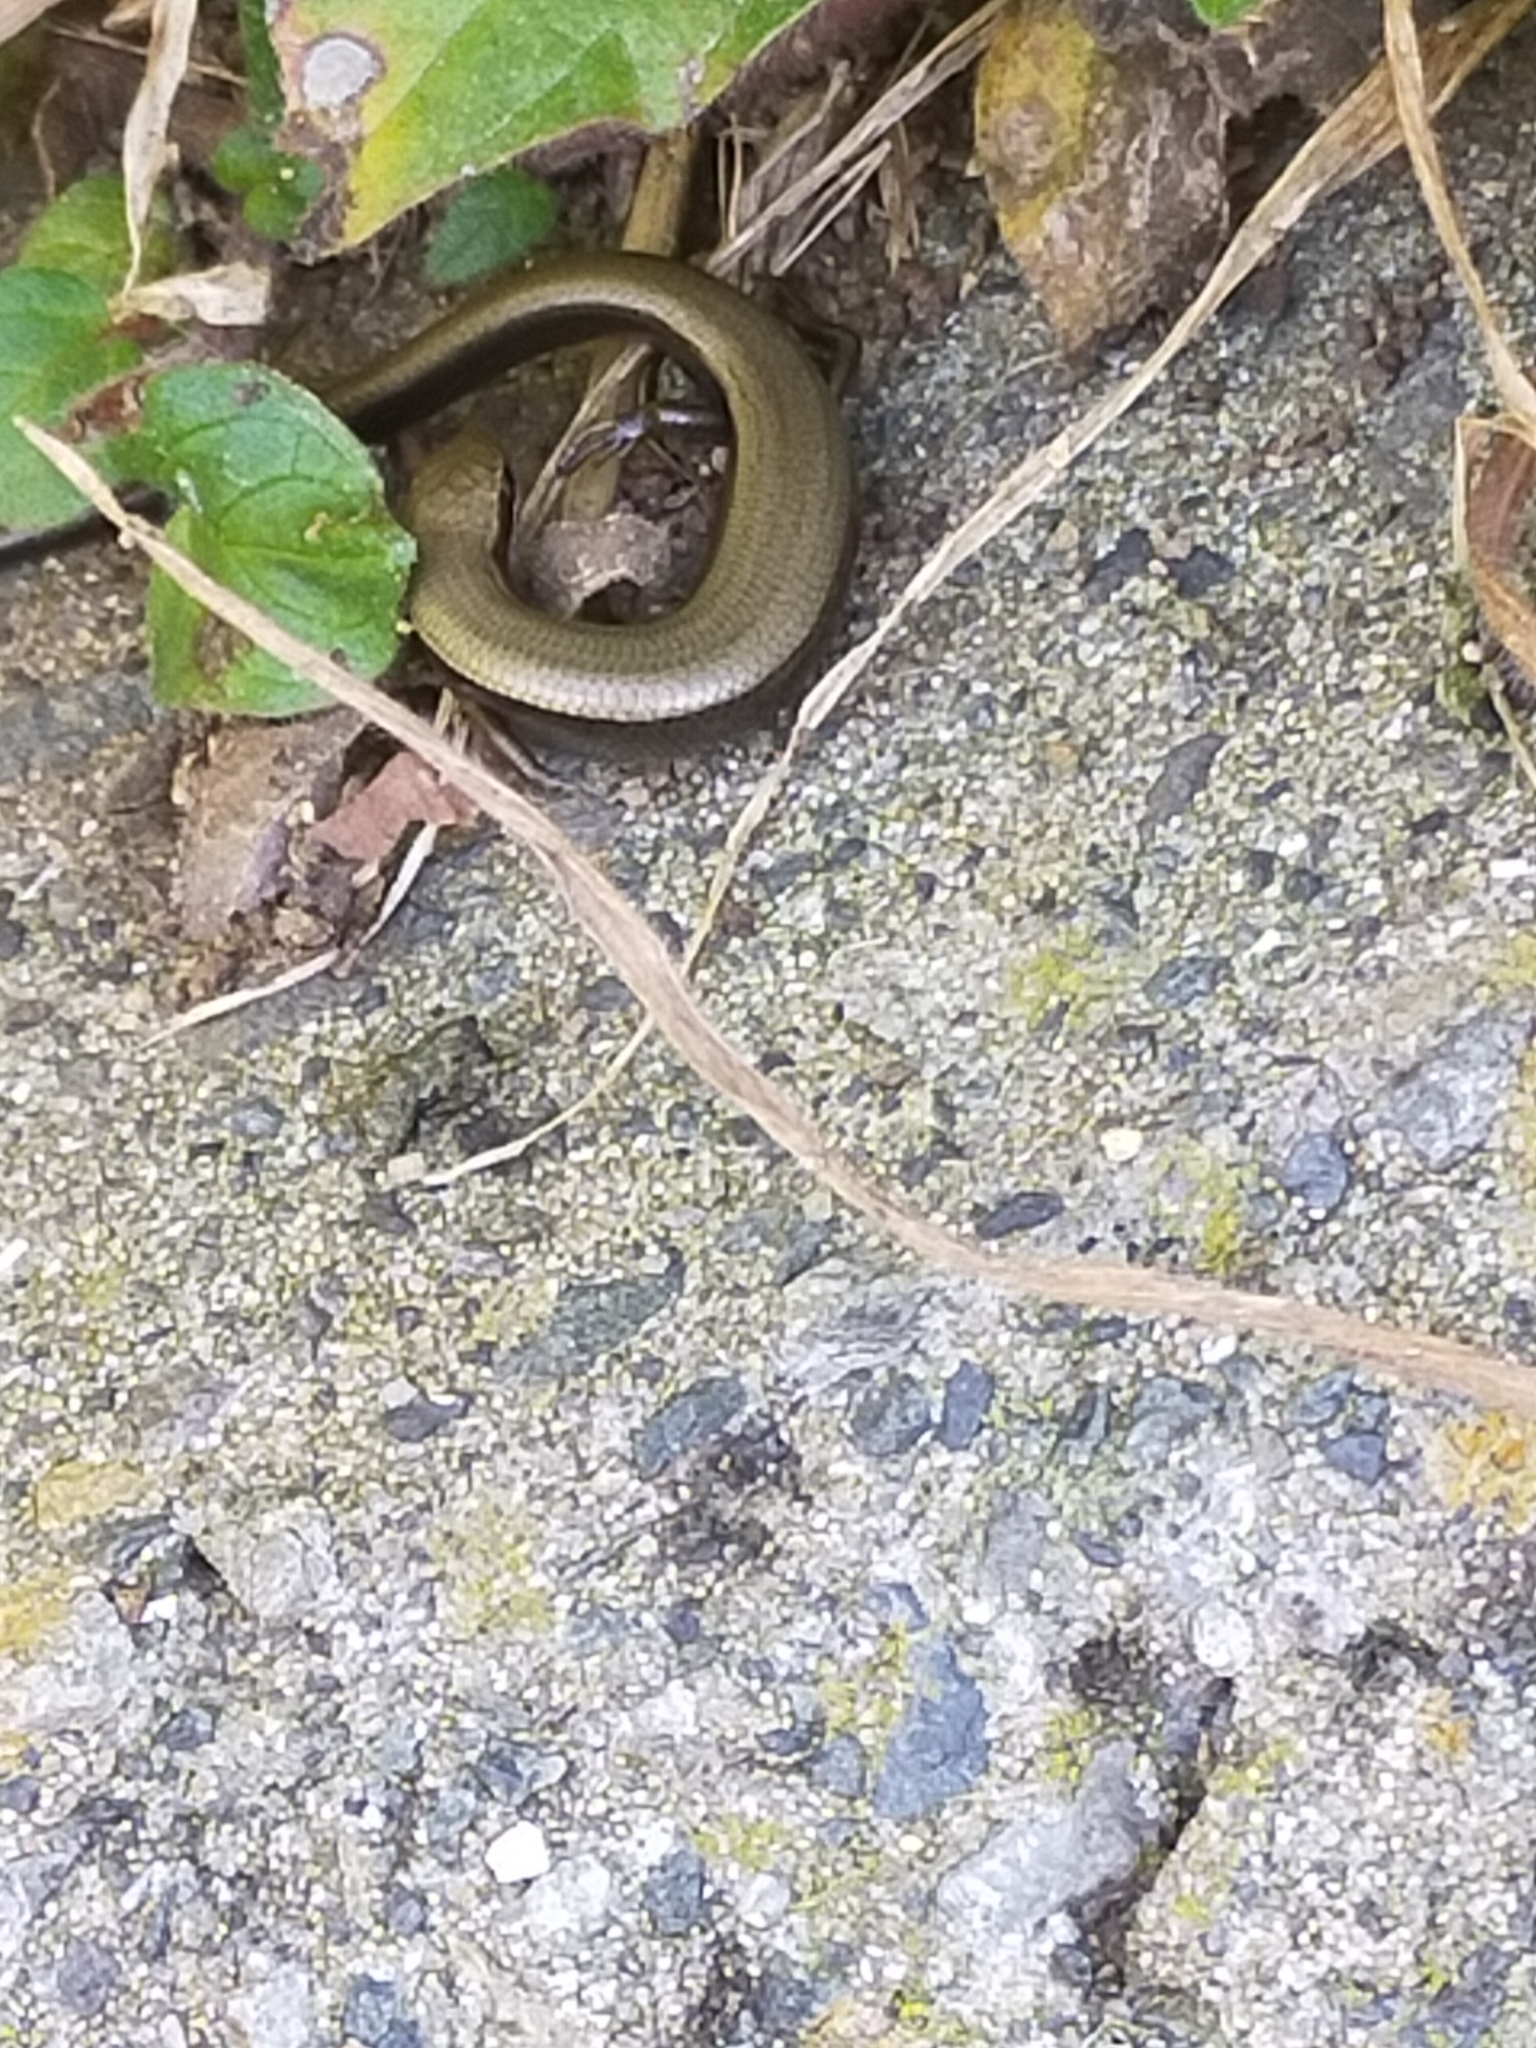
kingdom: Animalia
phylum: Chordata
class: Squamata
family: Scincidae
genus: Ablepharus
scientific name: Ablepharus kitaibelii
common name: Juniper skink
